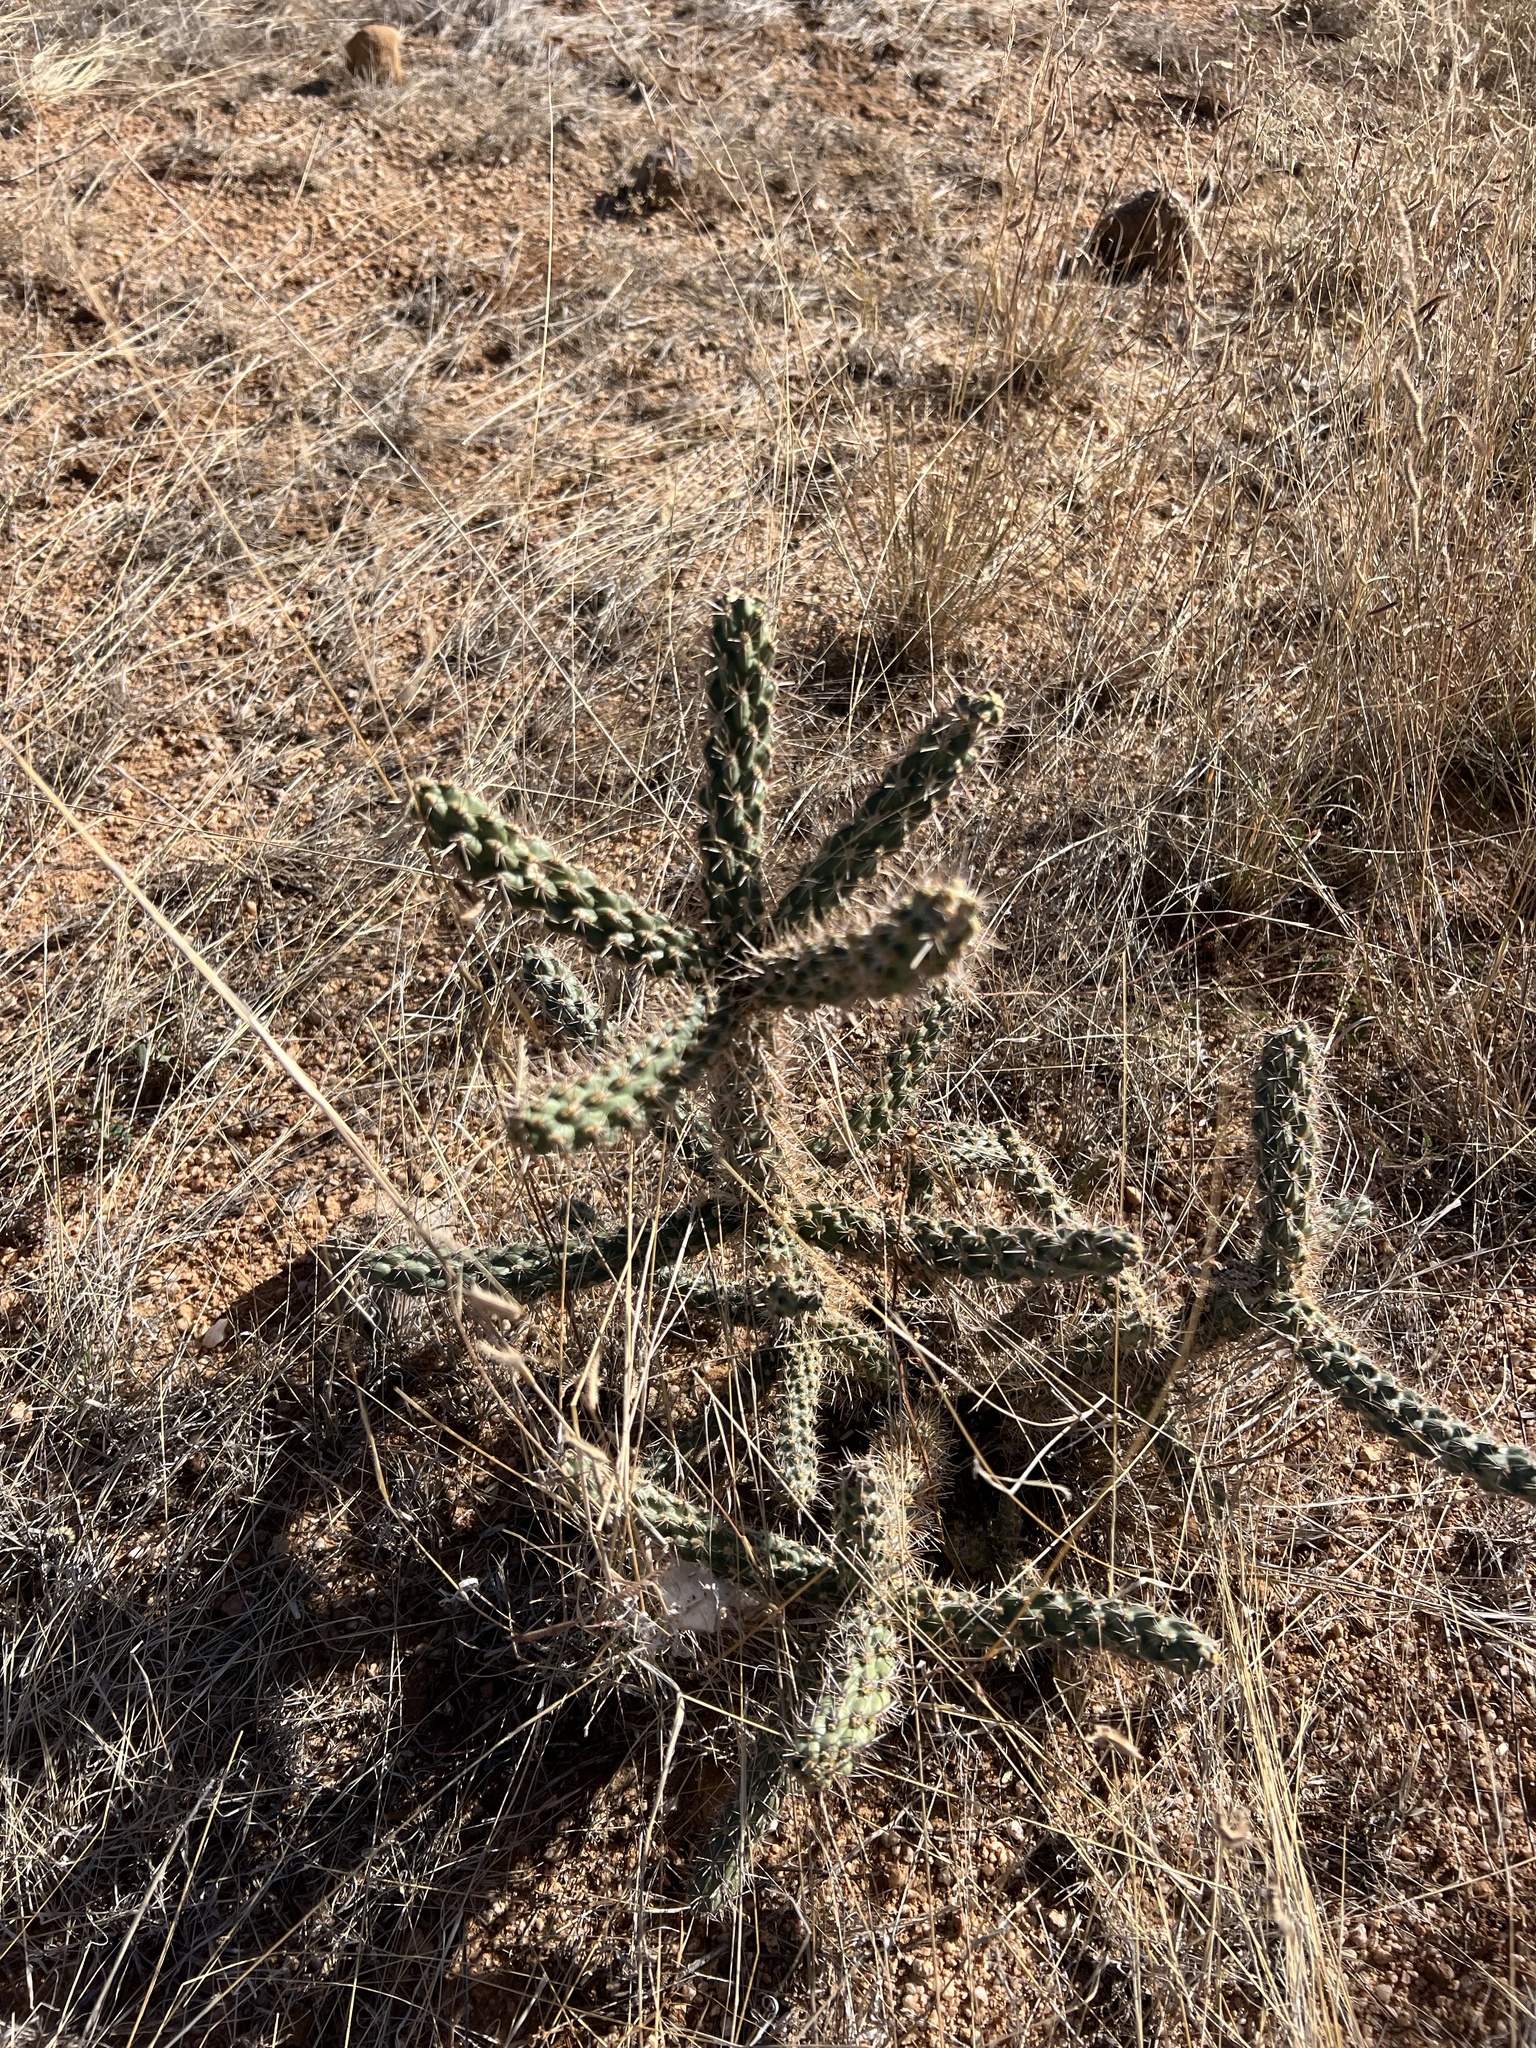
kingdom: Plantae
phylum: Tracheophyta
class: Magnoliopsida
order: Caryophyllales
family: Cactaceae
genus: Cylindropuntia
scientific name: Cylindropuntia imbricata
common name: Candelabrum cactus
